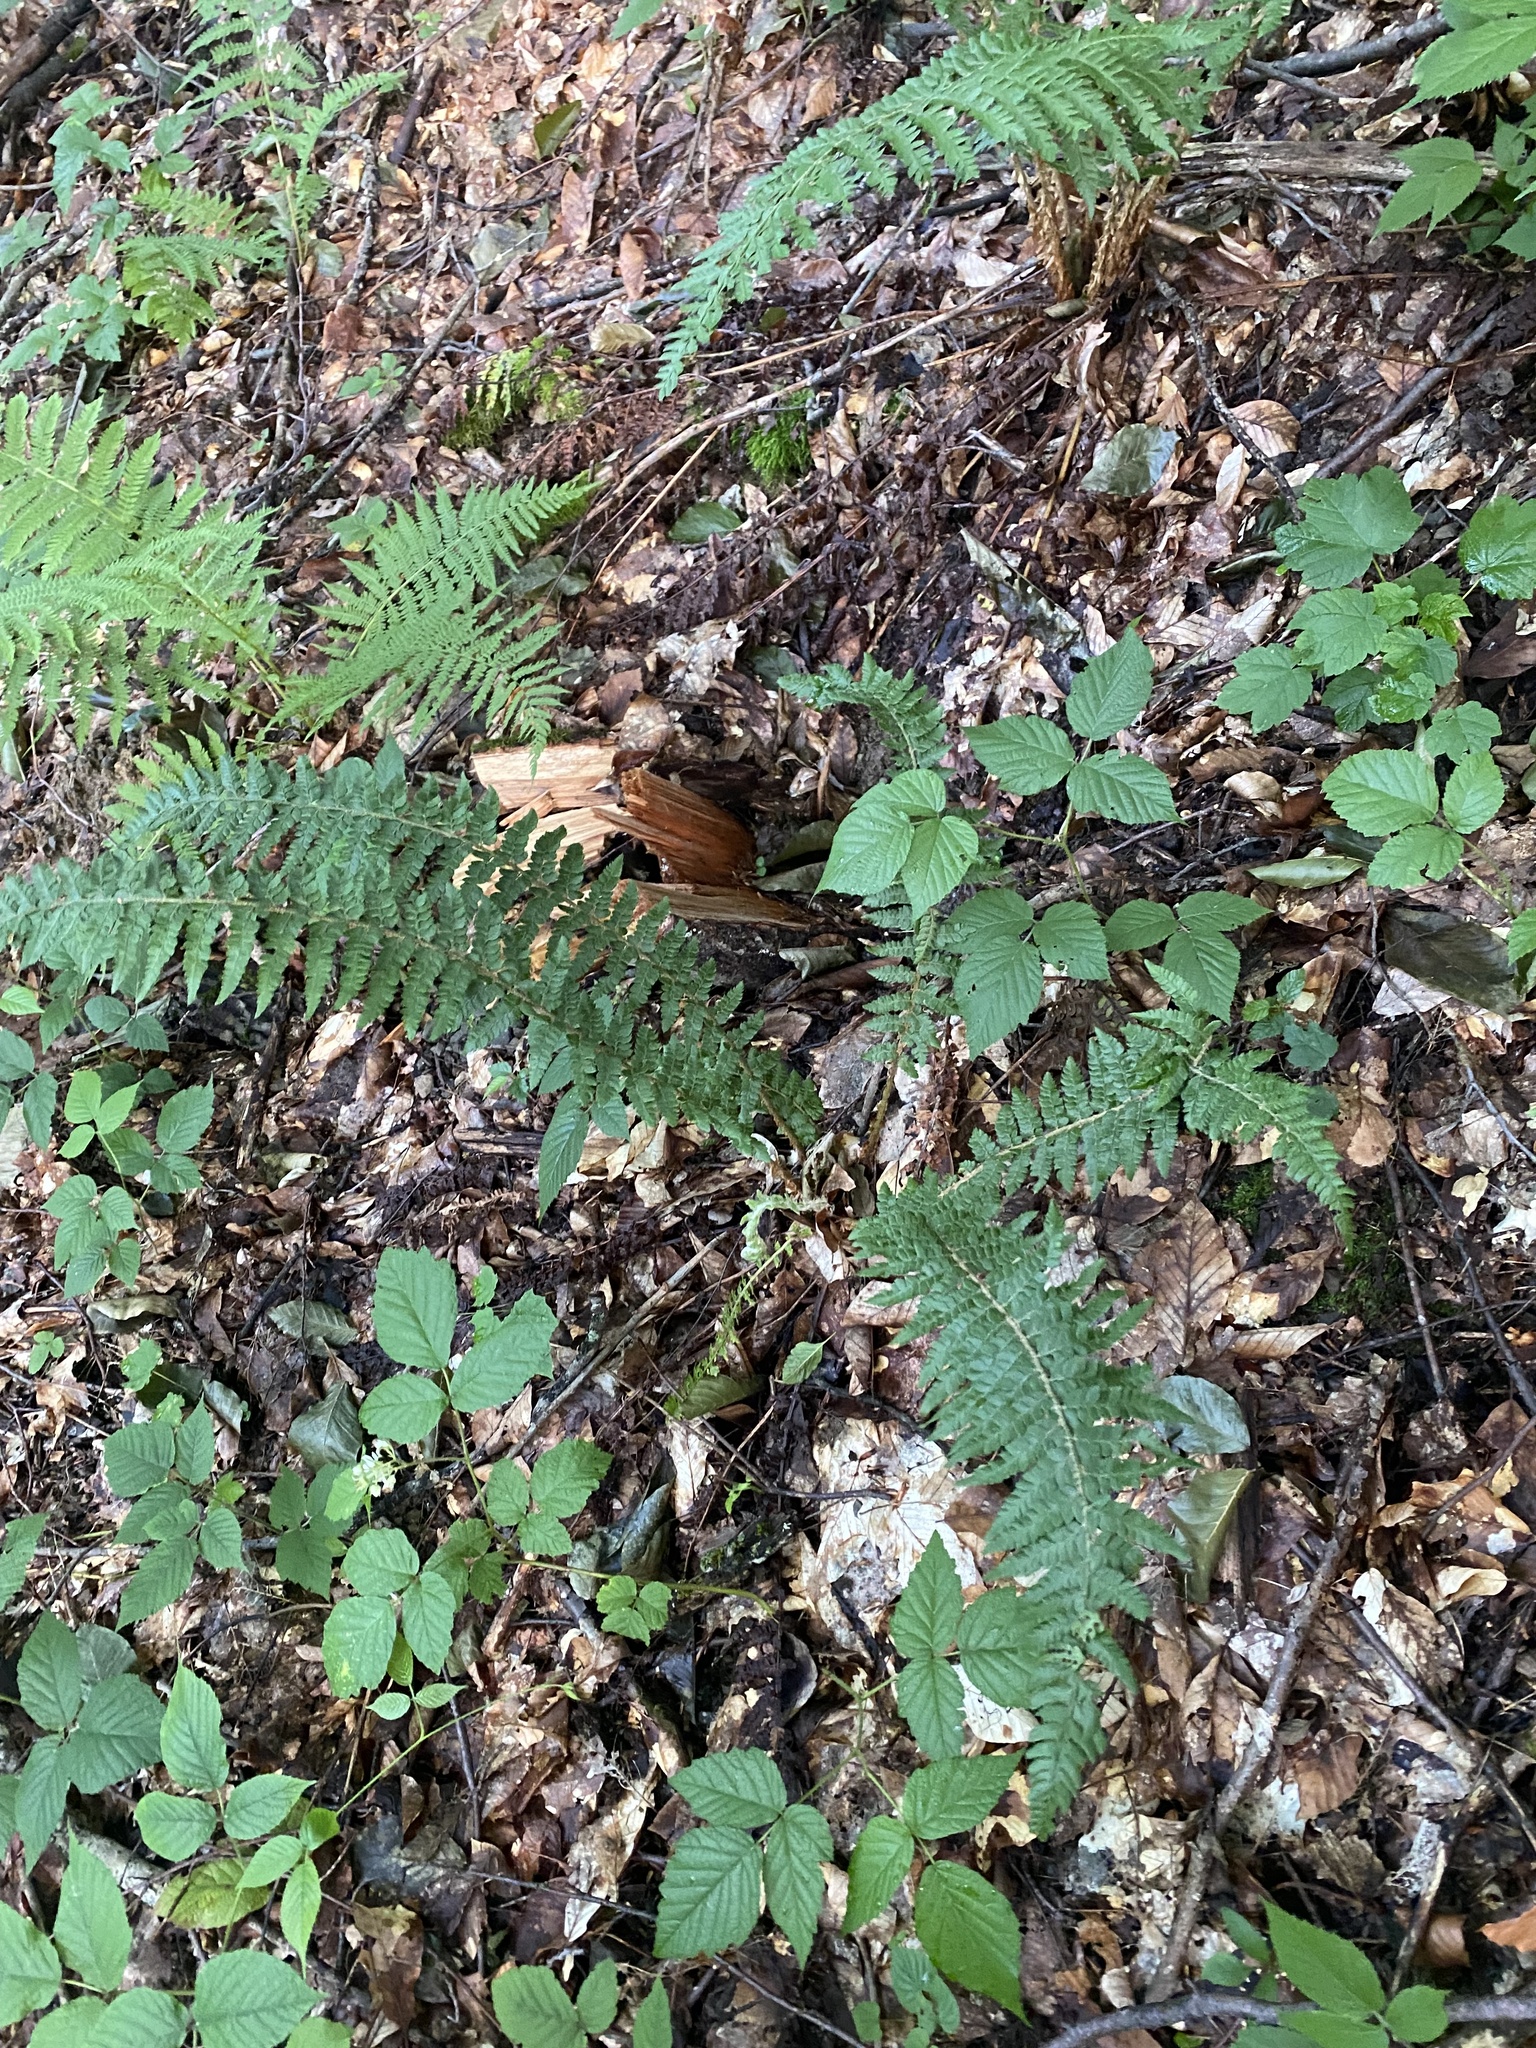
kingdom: Plantae
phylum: Tracheophyta
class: Polypodiopsida
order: Polypodiales
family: Dryopteridaceae
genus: Polystichum
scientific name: Polystichum braunii
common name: Braun's holly fern
